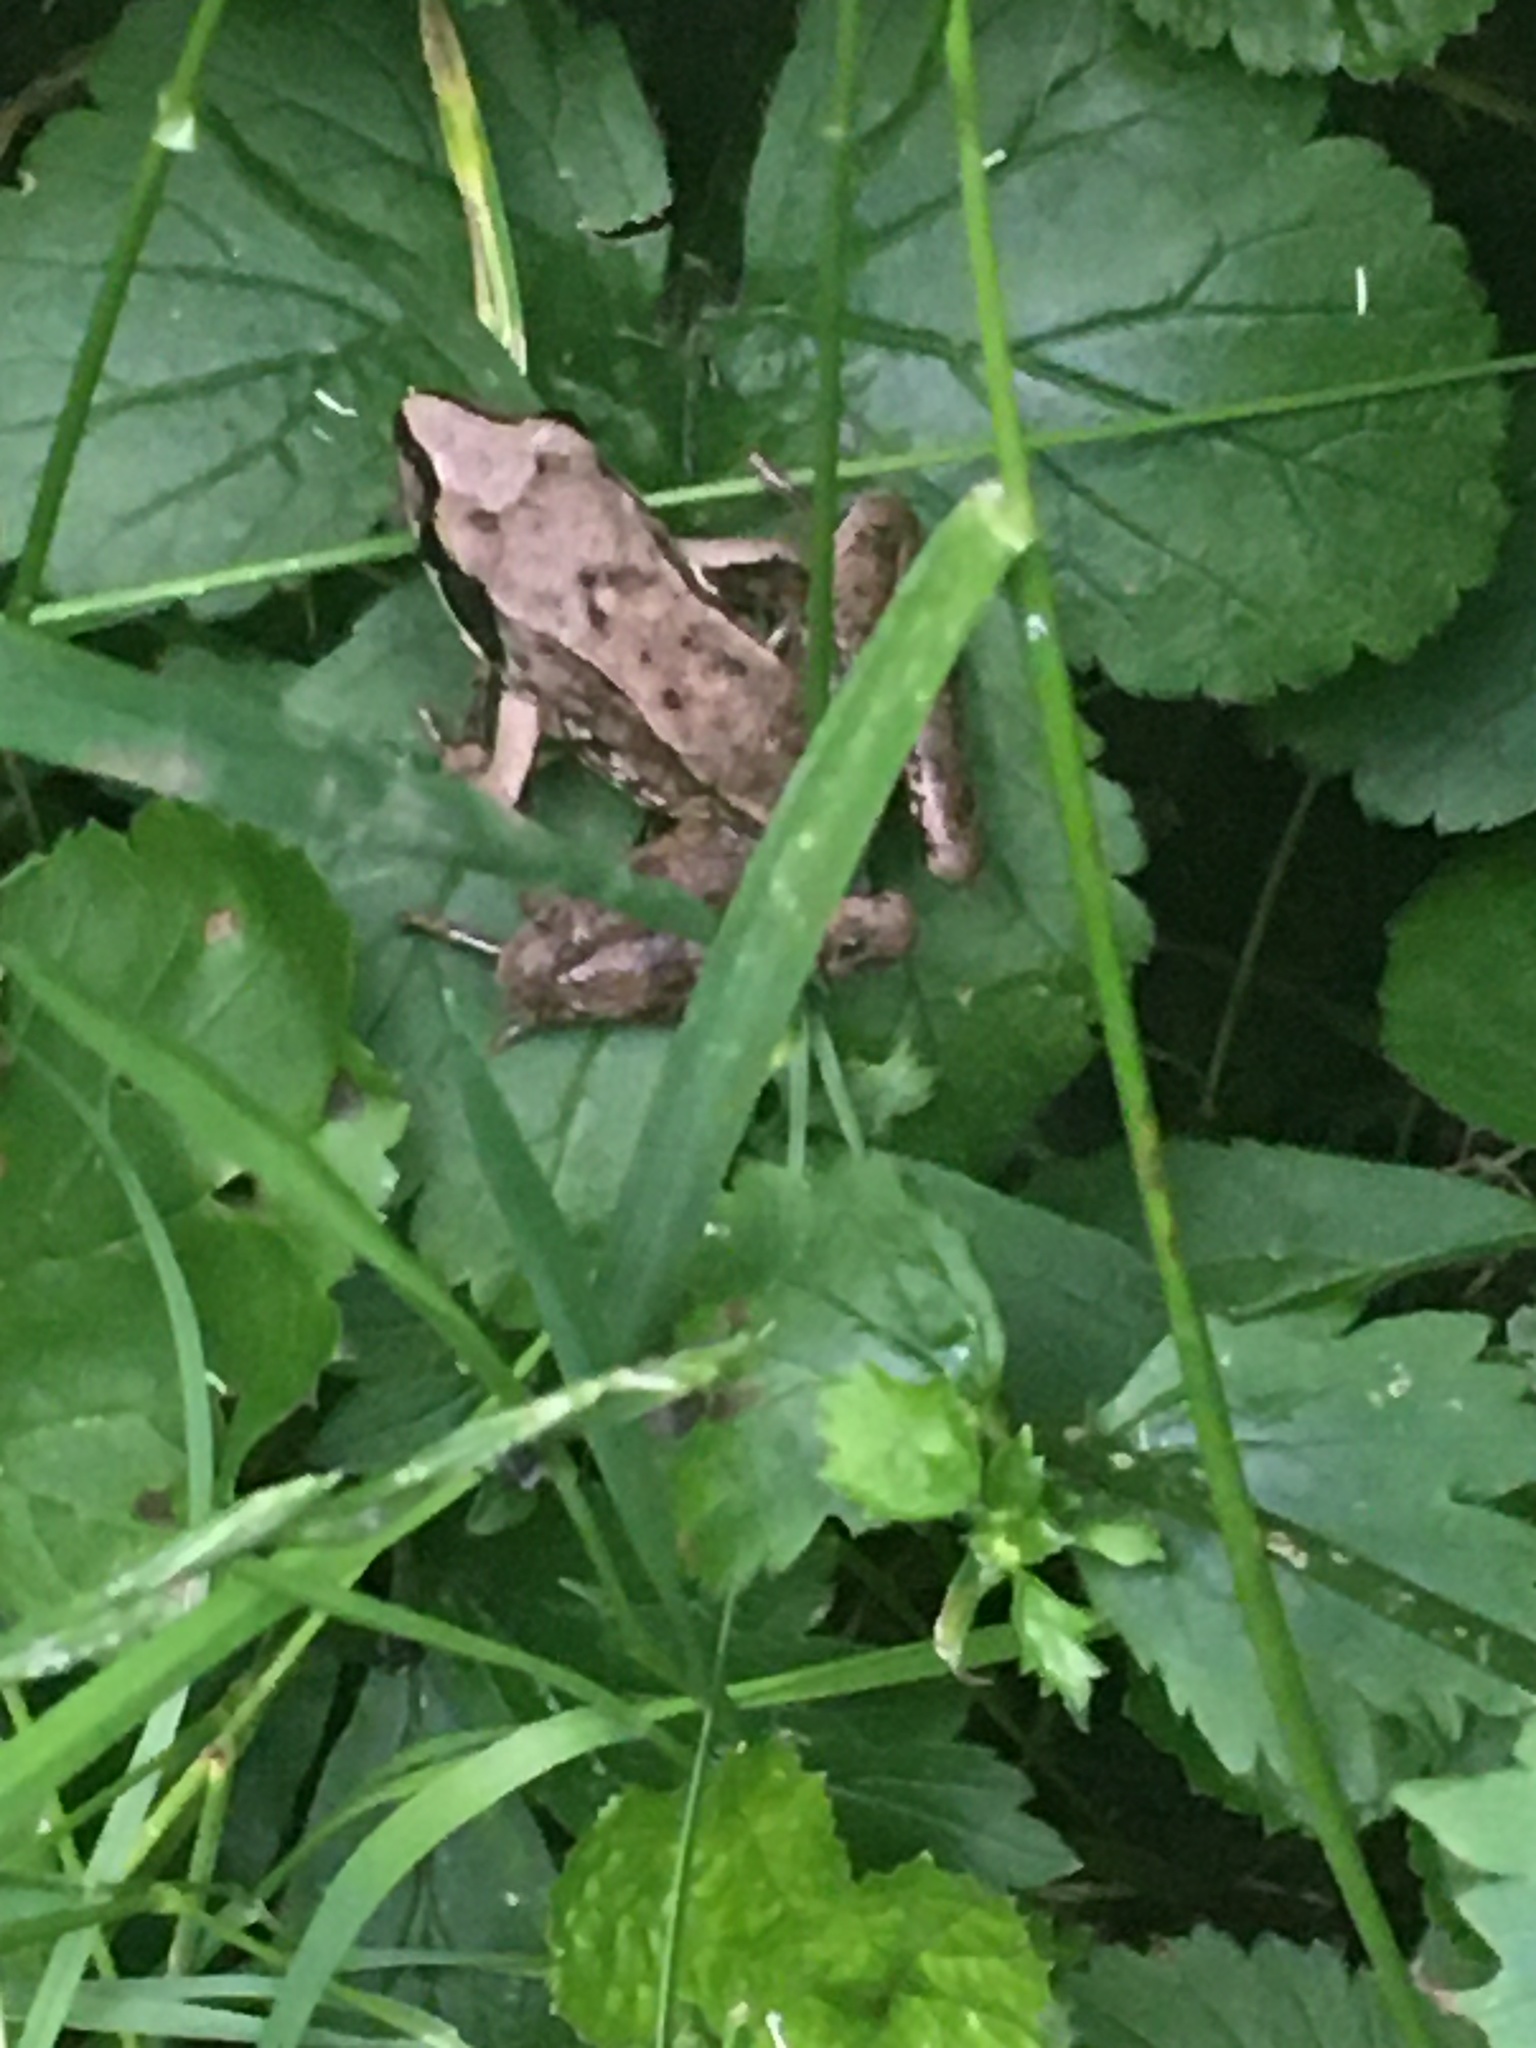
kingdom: Animalia
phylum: Chordata
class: Amphibia
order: Anura
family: Ranidae
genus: Rana
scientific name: Rana dalmatina
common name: Agile frog
